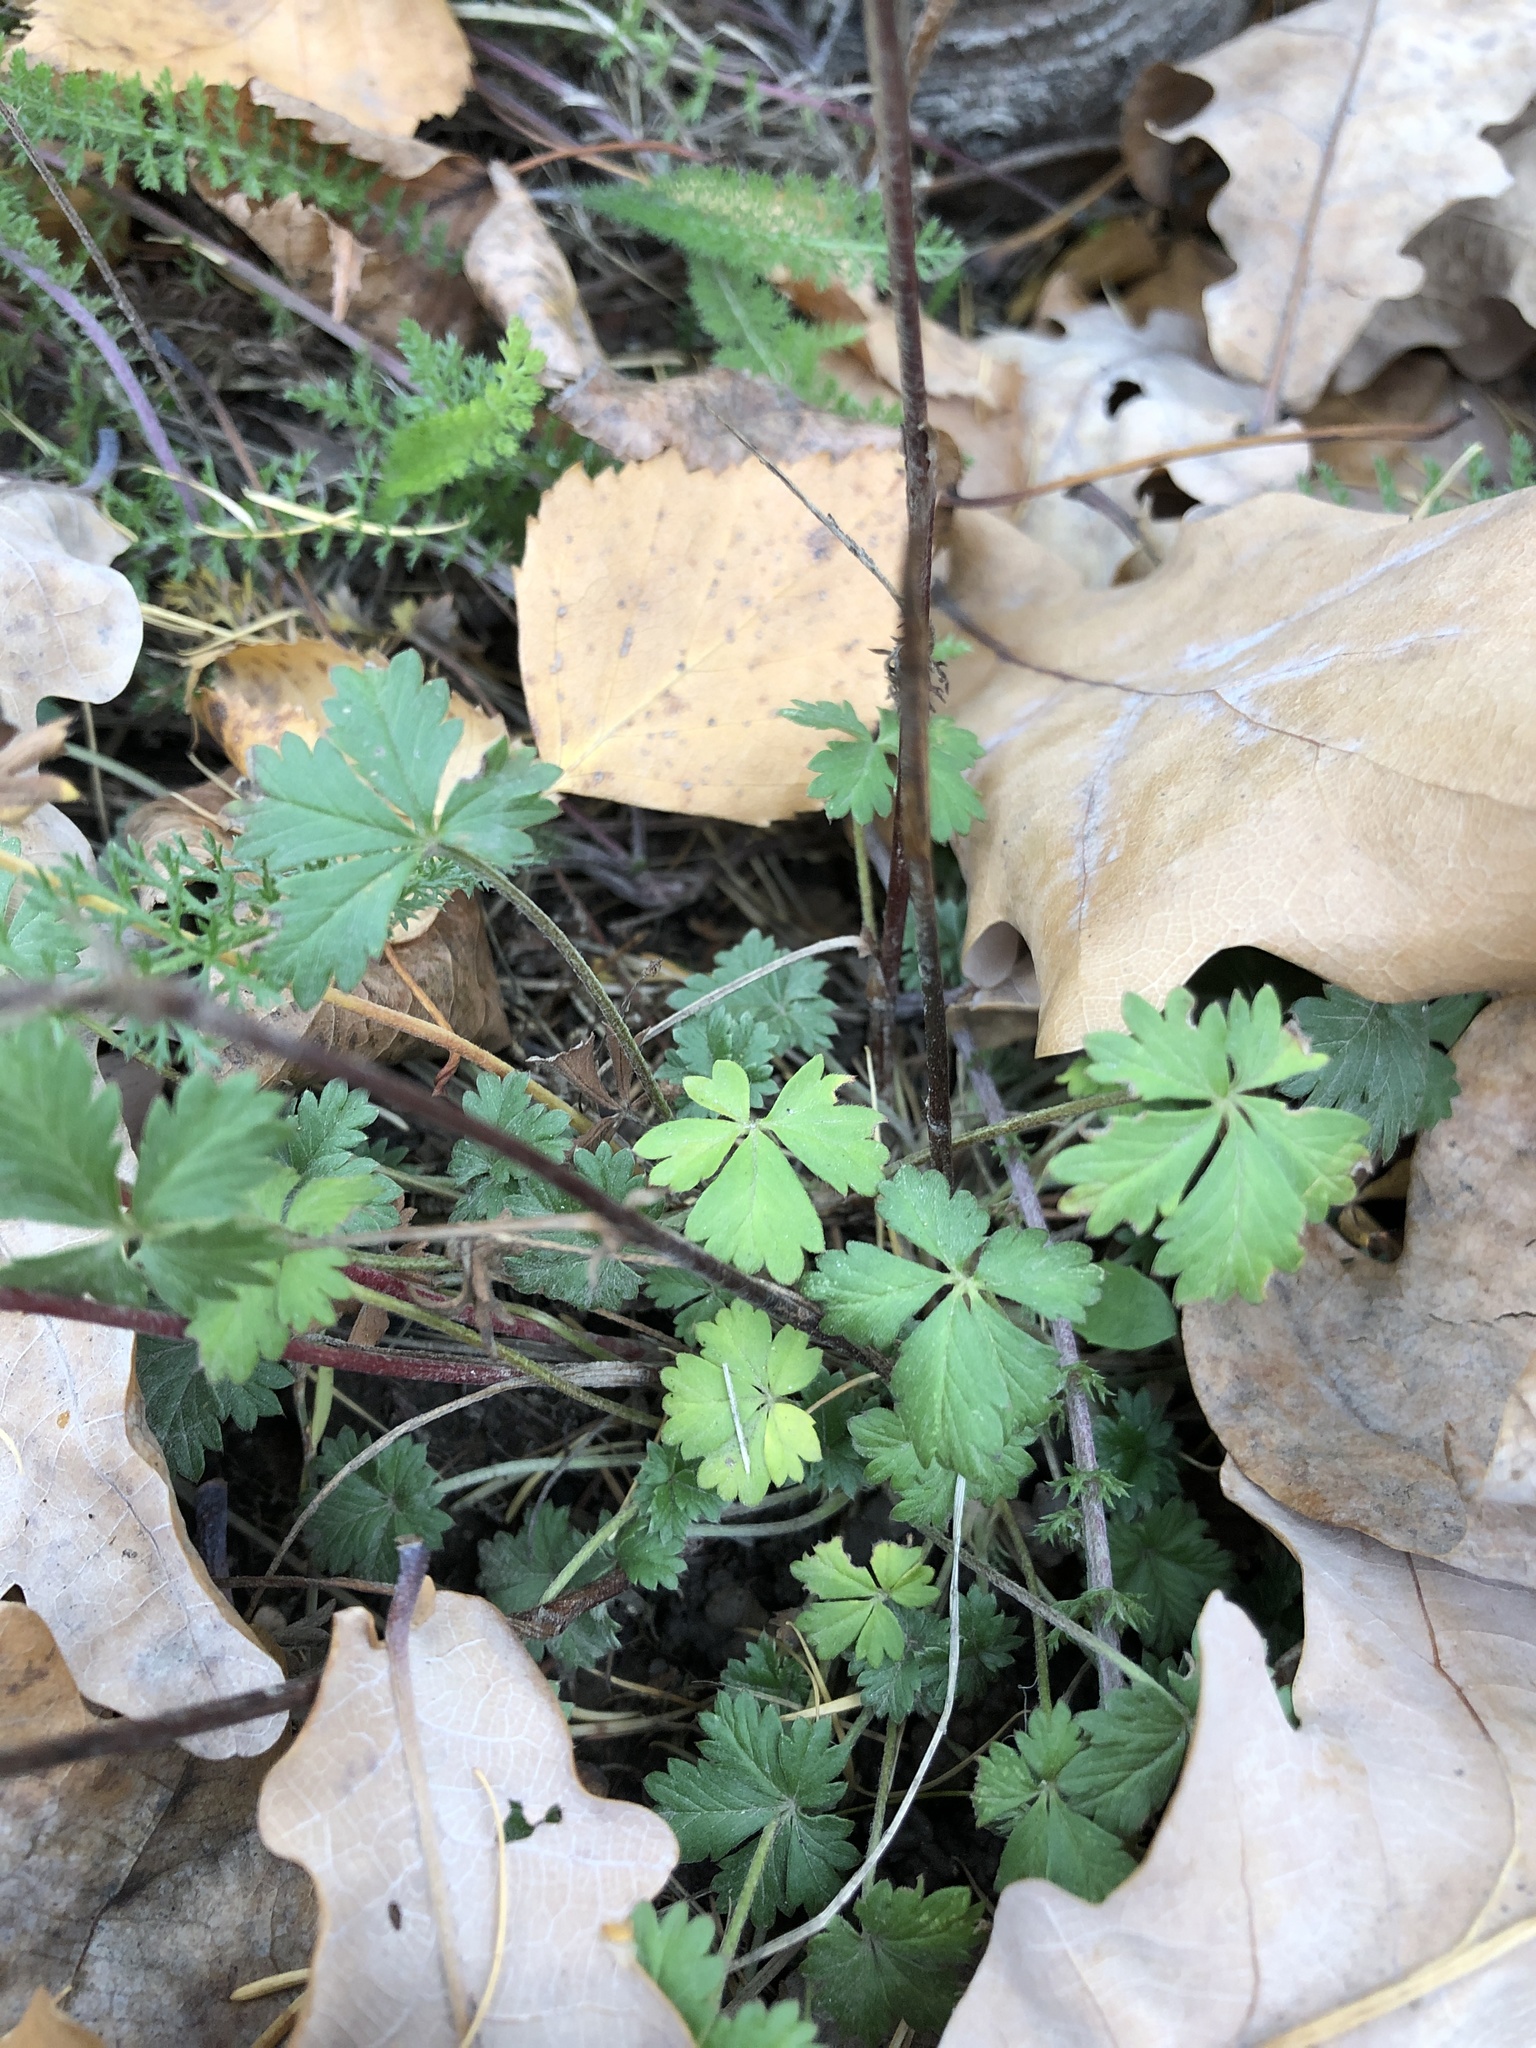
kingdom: Plantae
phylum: Tracheophyta
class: Magnoliopsida
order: Rosales
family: Rosaceae
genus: Potentilla
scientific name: Potentilla argentea
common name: Hoary cinquefoil
